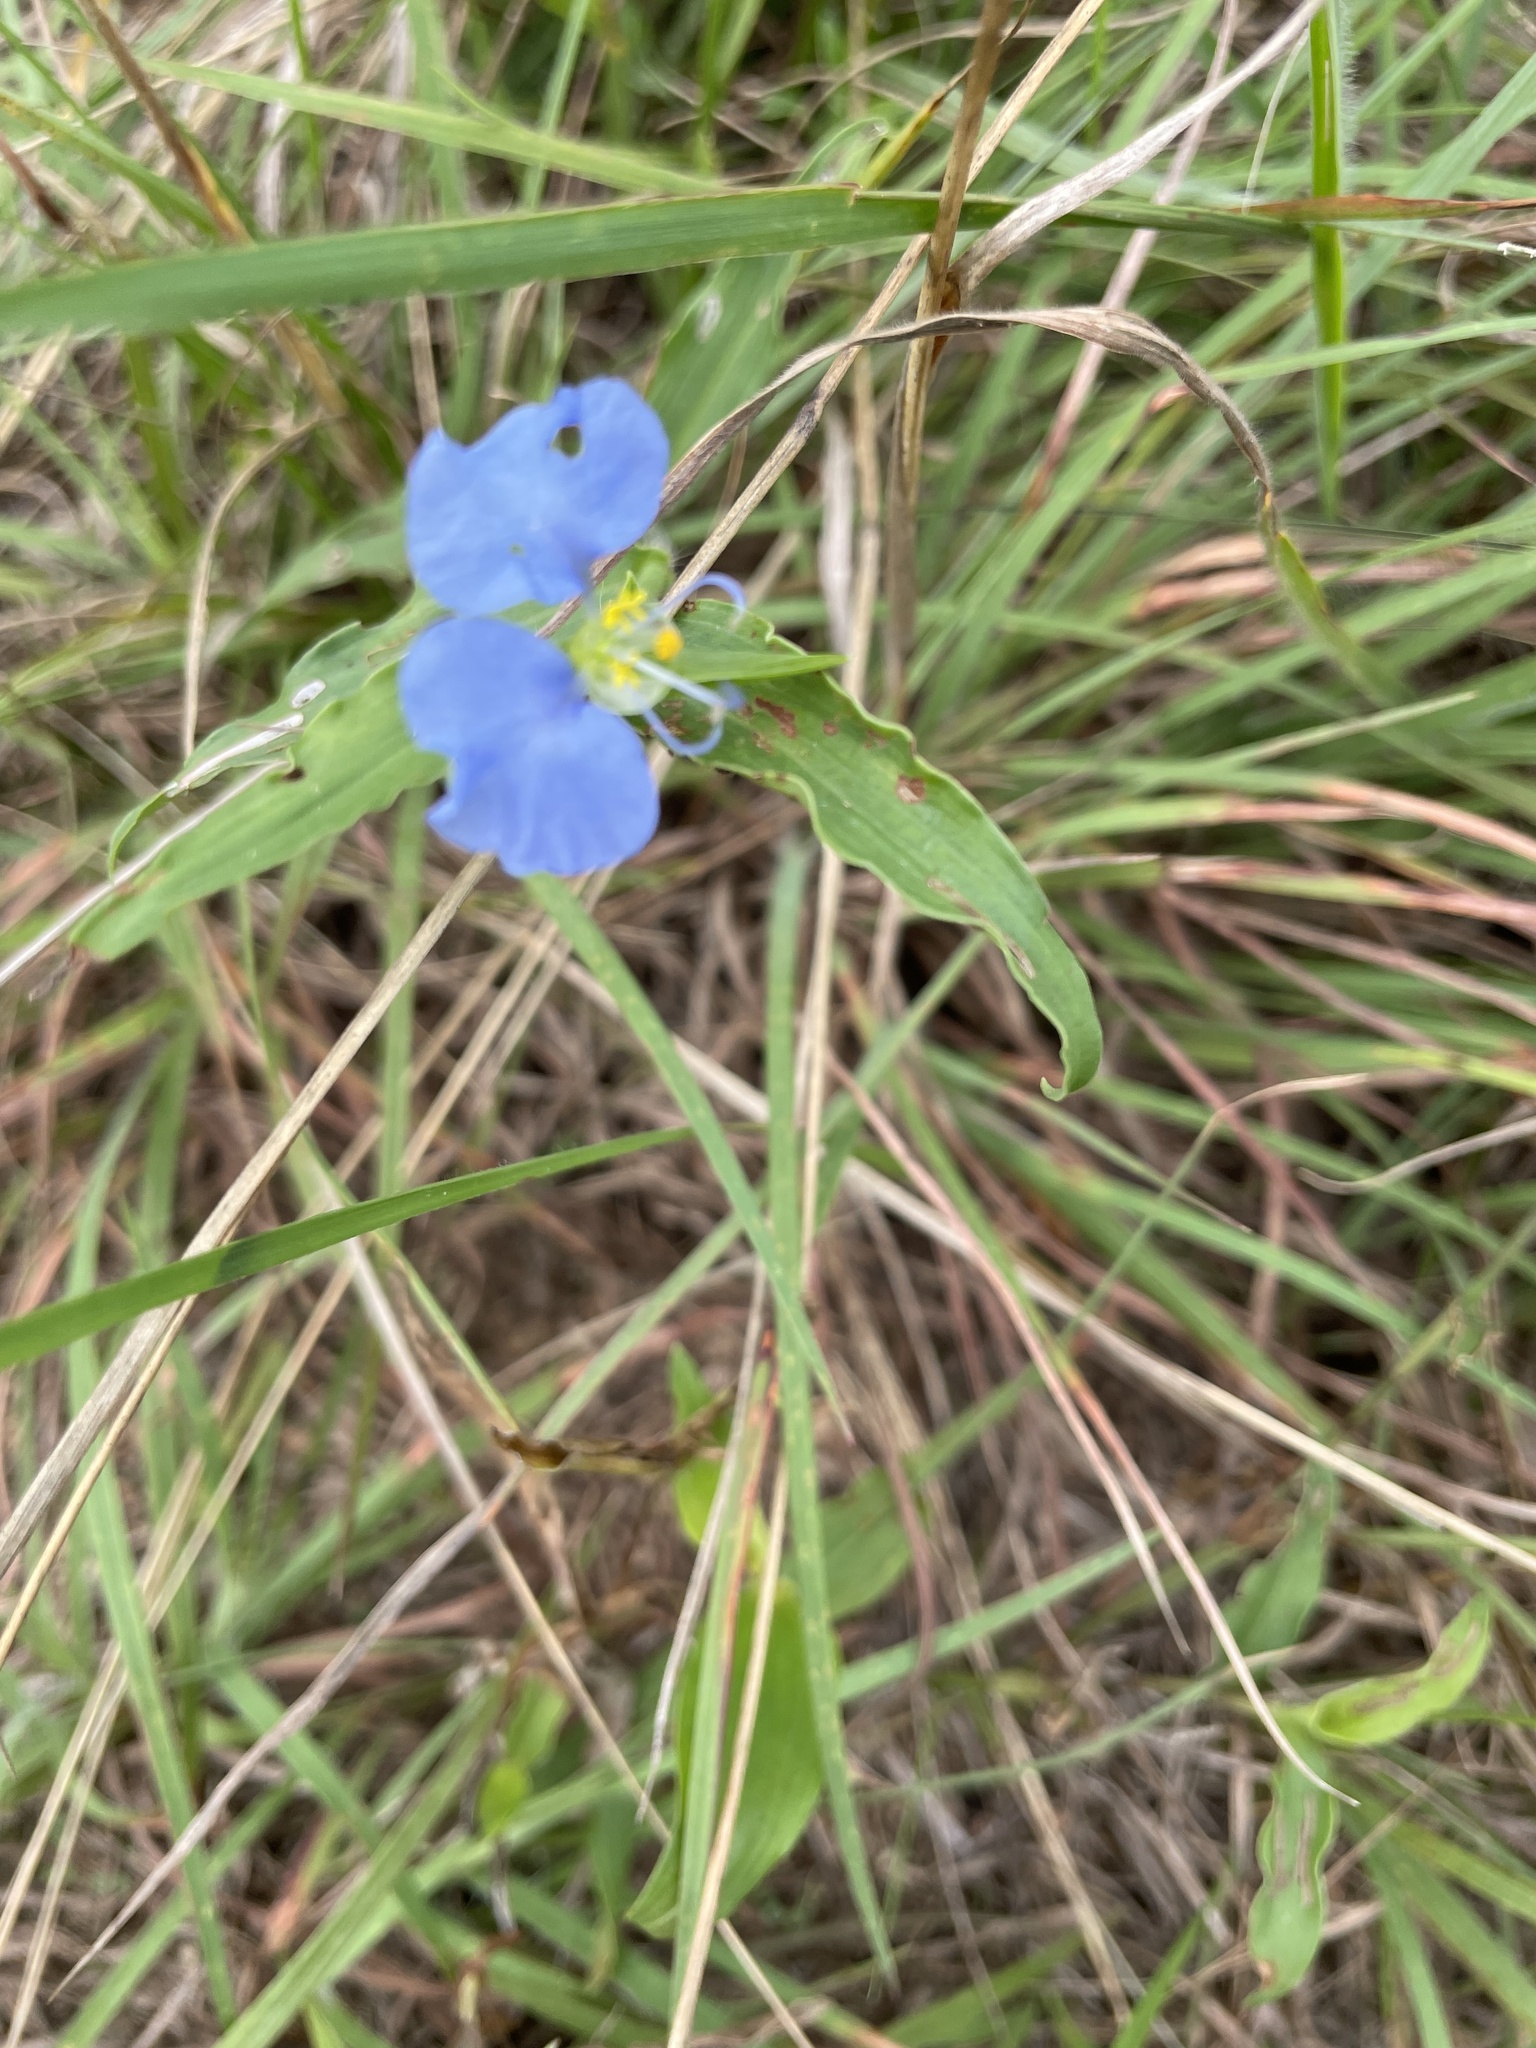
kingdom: Plantae
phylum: Tracheophyta
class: Liliopsida
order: Commelinales
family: Commelinaceae
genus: Commelina
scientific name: Commelina erecta
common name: Blousel blommetjie
